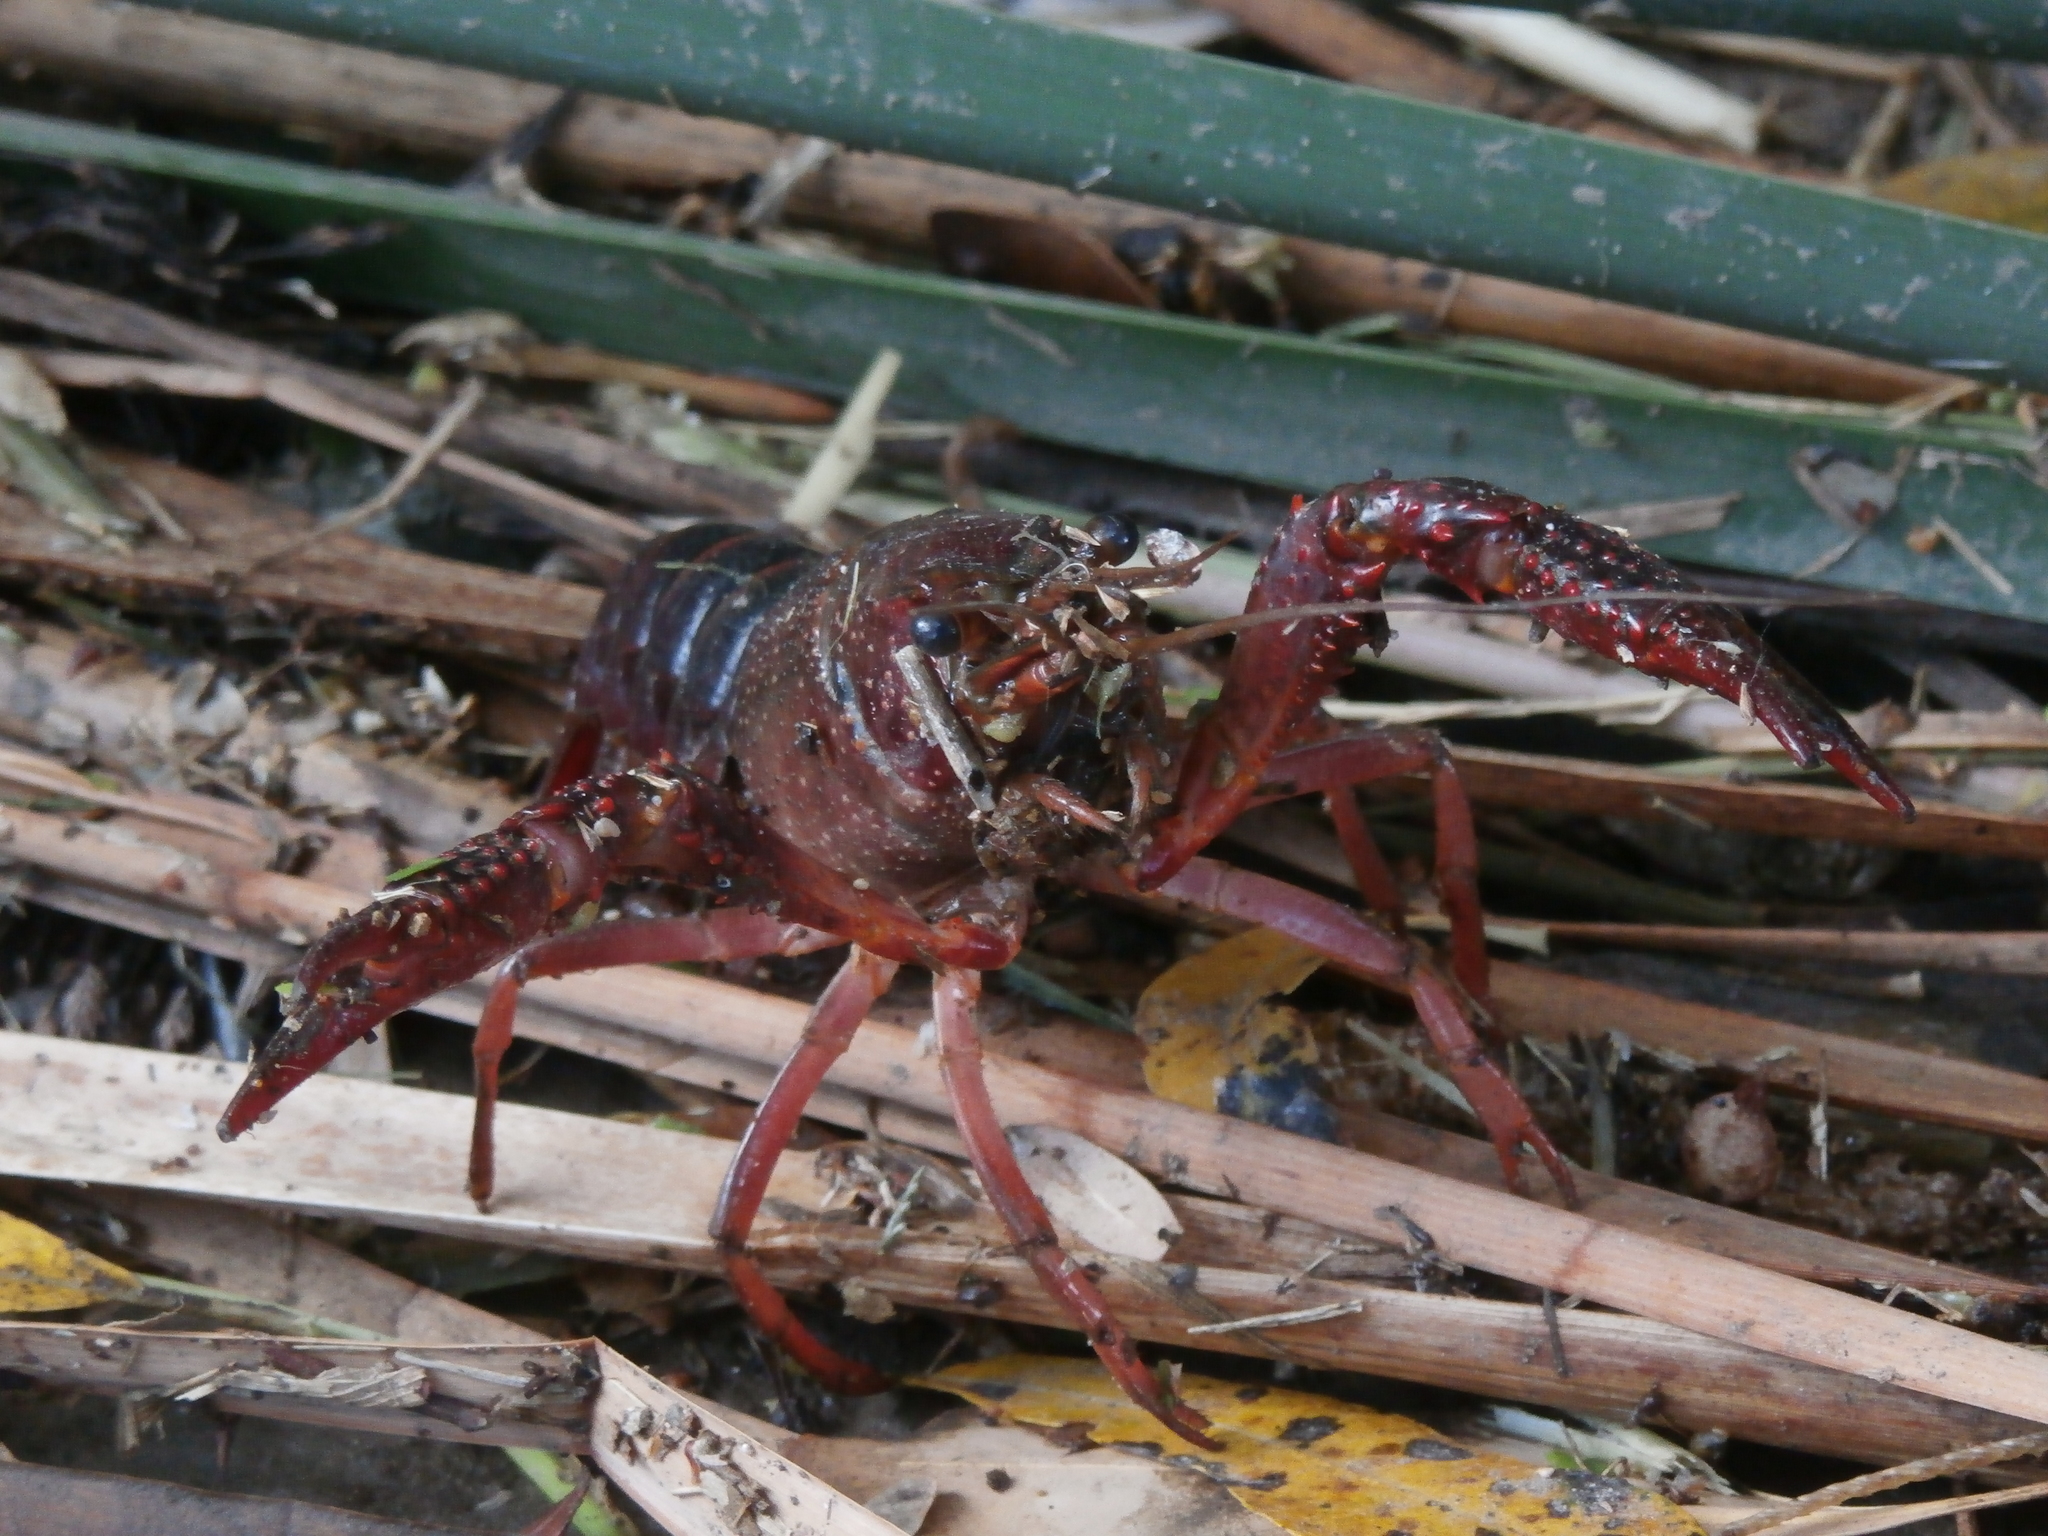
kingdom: Animalia
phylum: Arthropoda
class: Malacostraca
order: Decapoda
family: Cambaridae
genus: Procambarus
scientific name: Procambarus clarkii
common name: Red swamp crayfish
